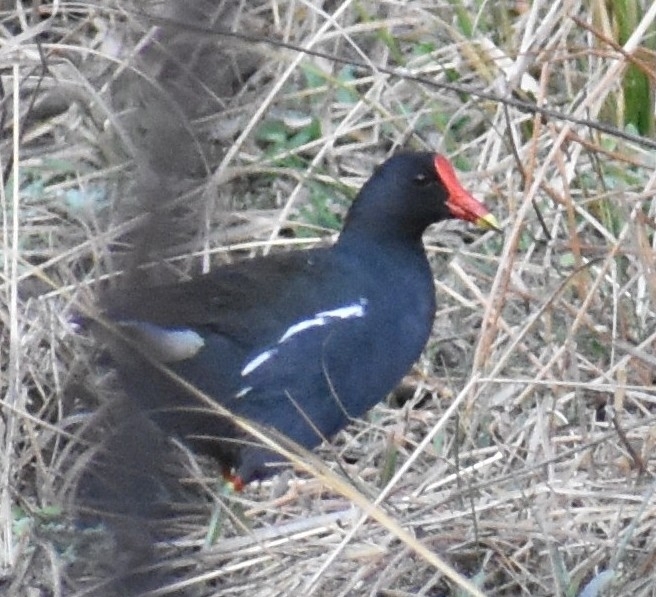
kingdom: Animalia
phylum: Chordata
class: Aves
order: Gruiformes
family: Rallidae
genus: Gallinula
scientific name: Gallinula chloropus
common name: Common moorhen
